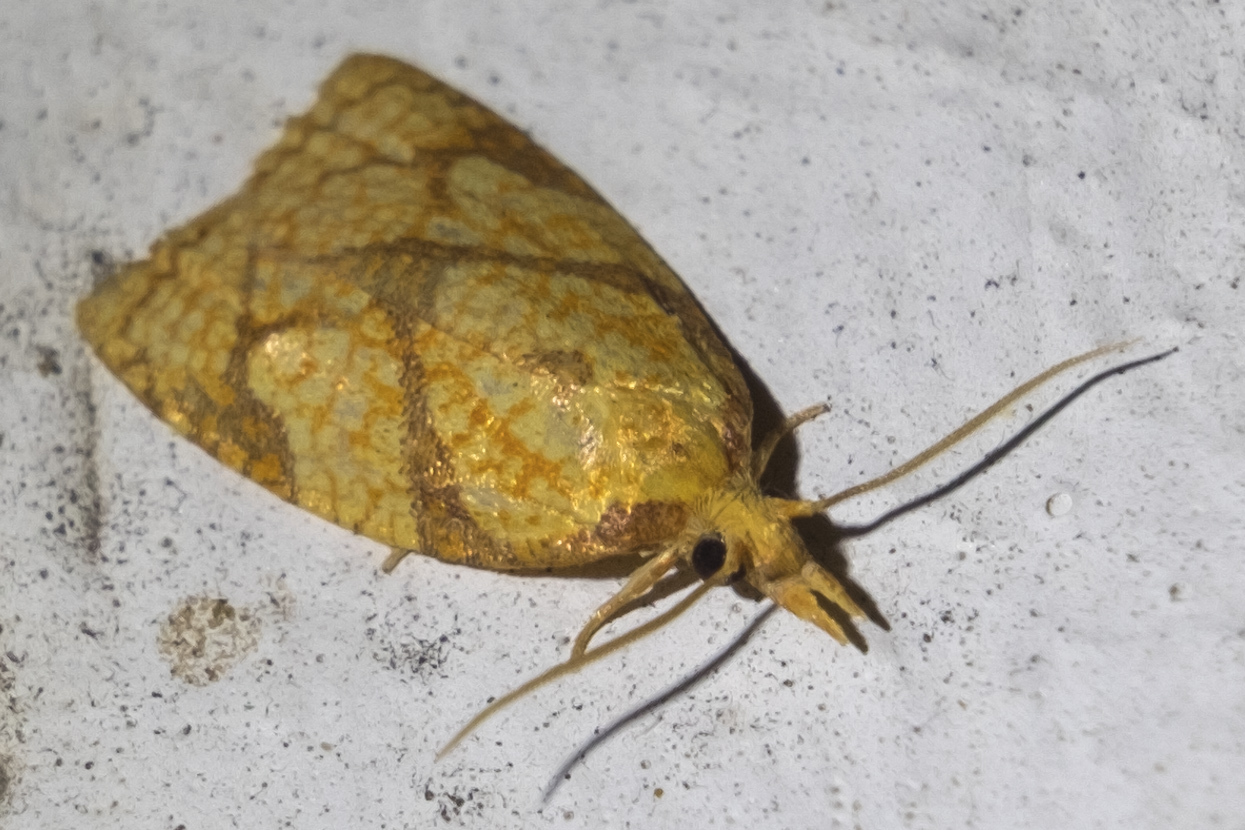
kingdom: Animalia
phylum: Arthropoda
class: Insecta
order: Lepidoptera
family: Tortricidae
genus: Cenopis
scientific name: Cenopis reticulatana
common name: Reticulated fruitworm moth
